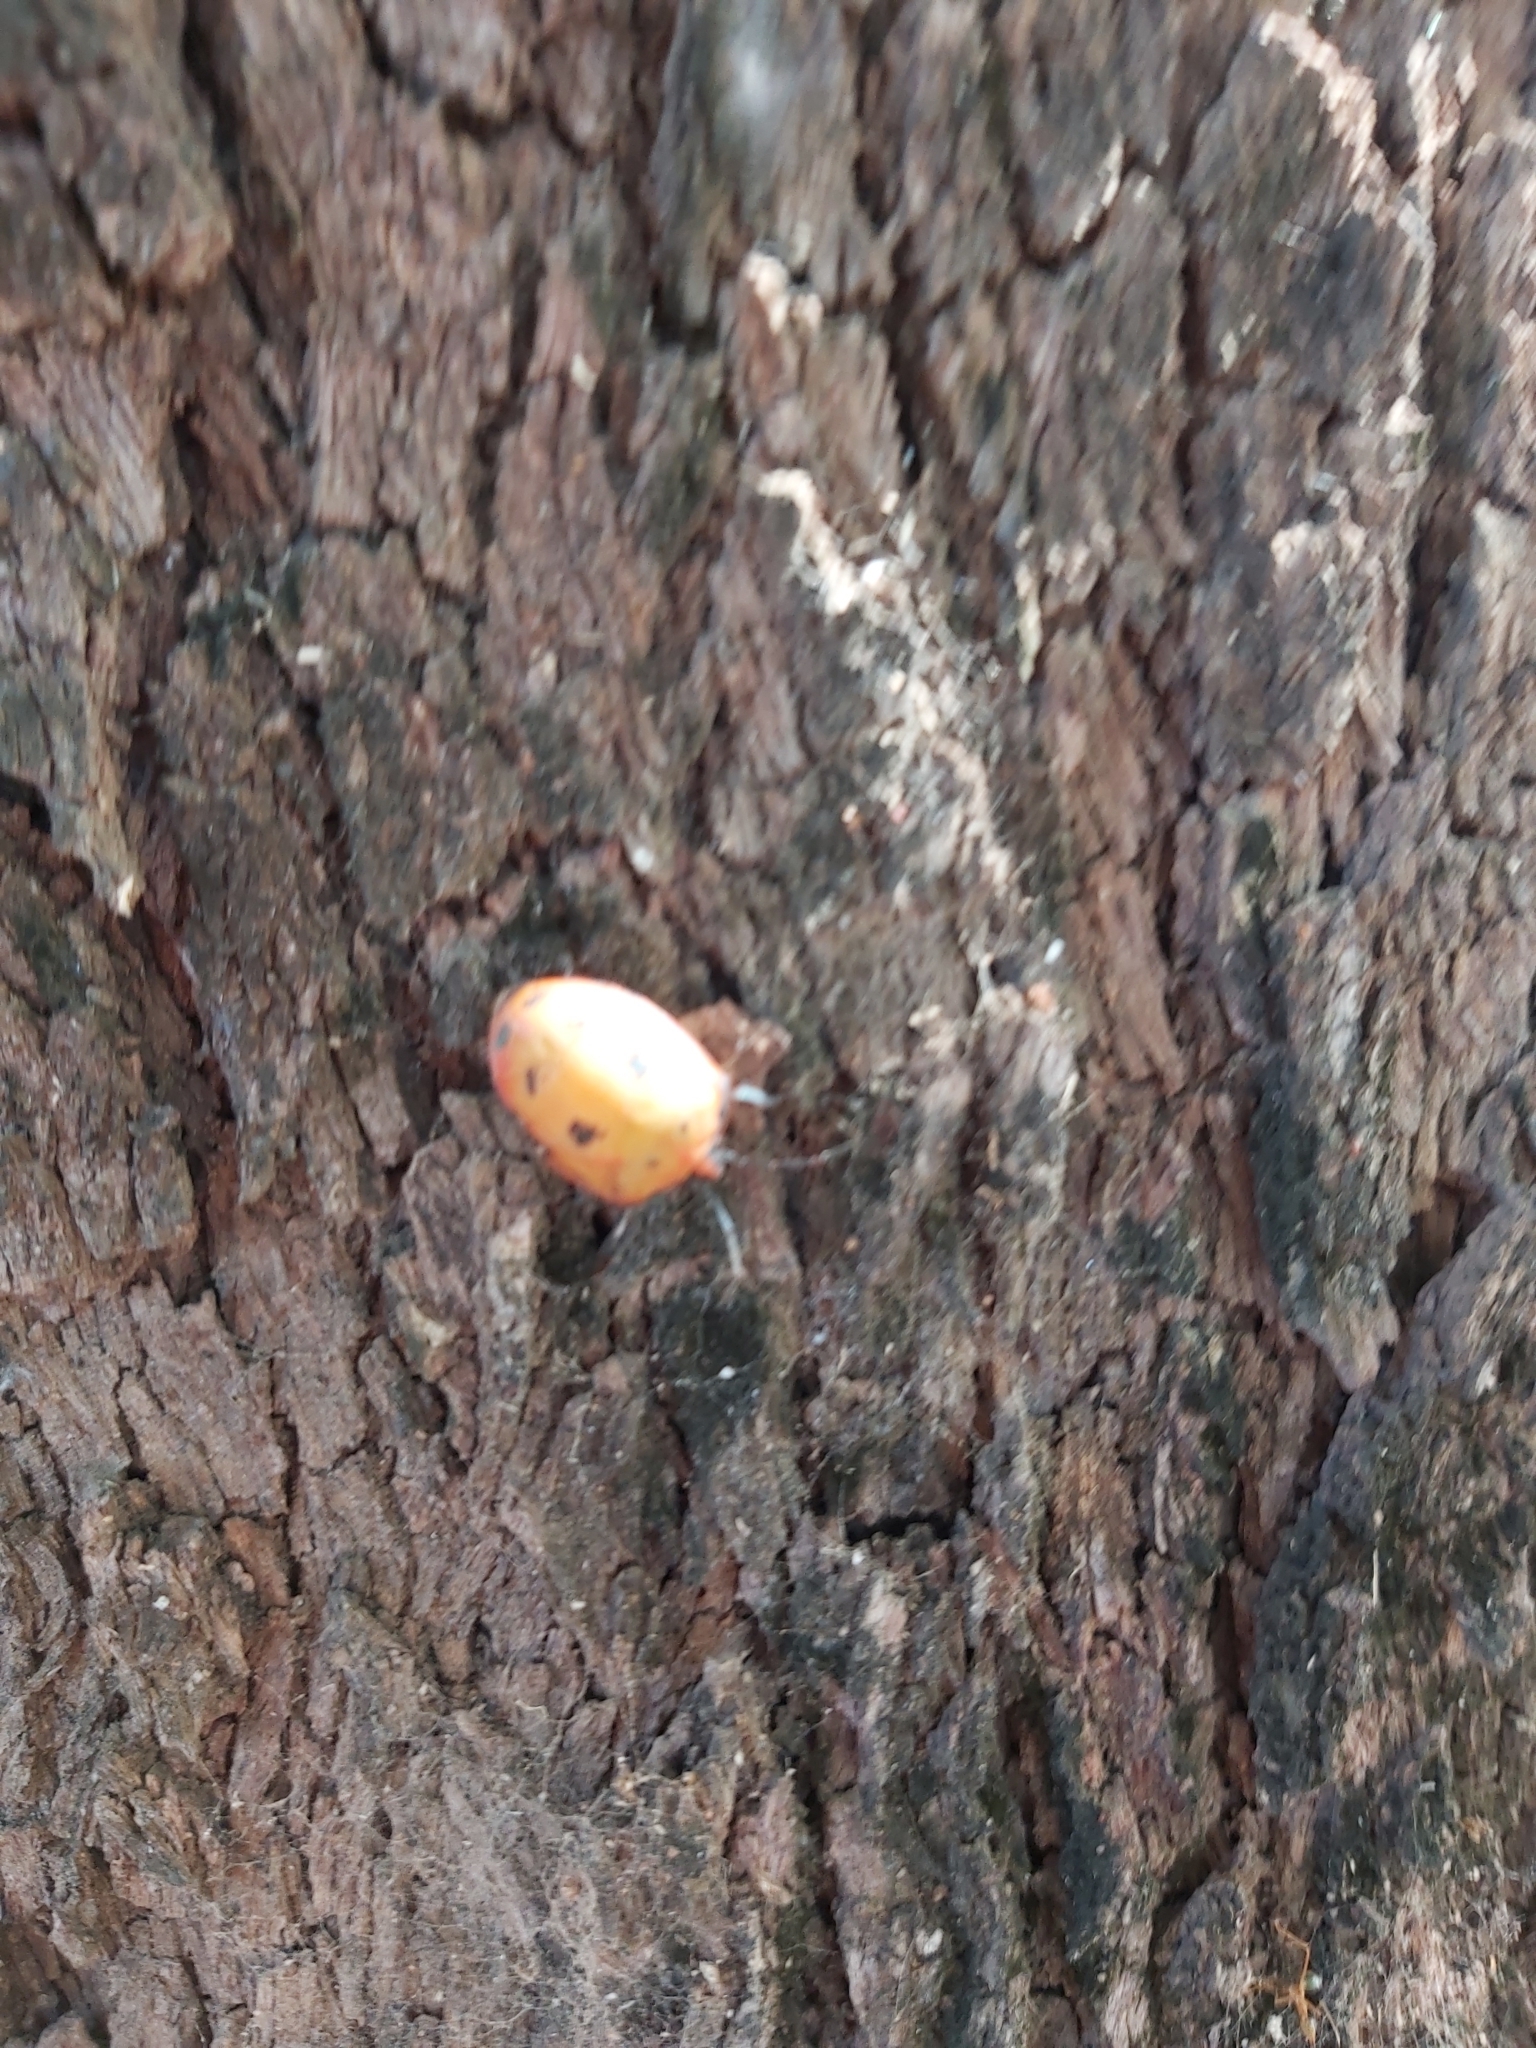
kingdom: Animalia
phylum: Arthropoda
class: Insecta
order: Hemiptera
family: Scutelleridae
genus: Tectocoris
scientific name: Tectocoris diophthalmus
